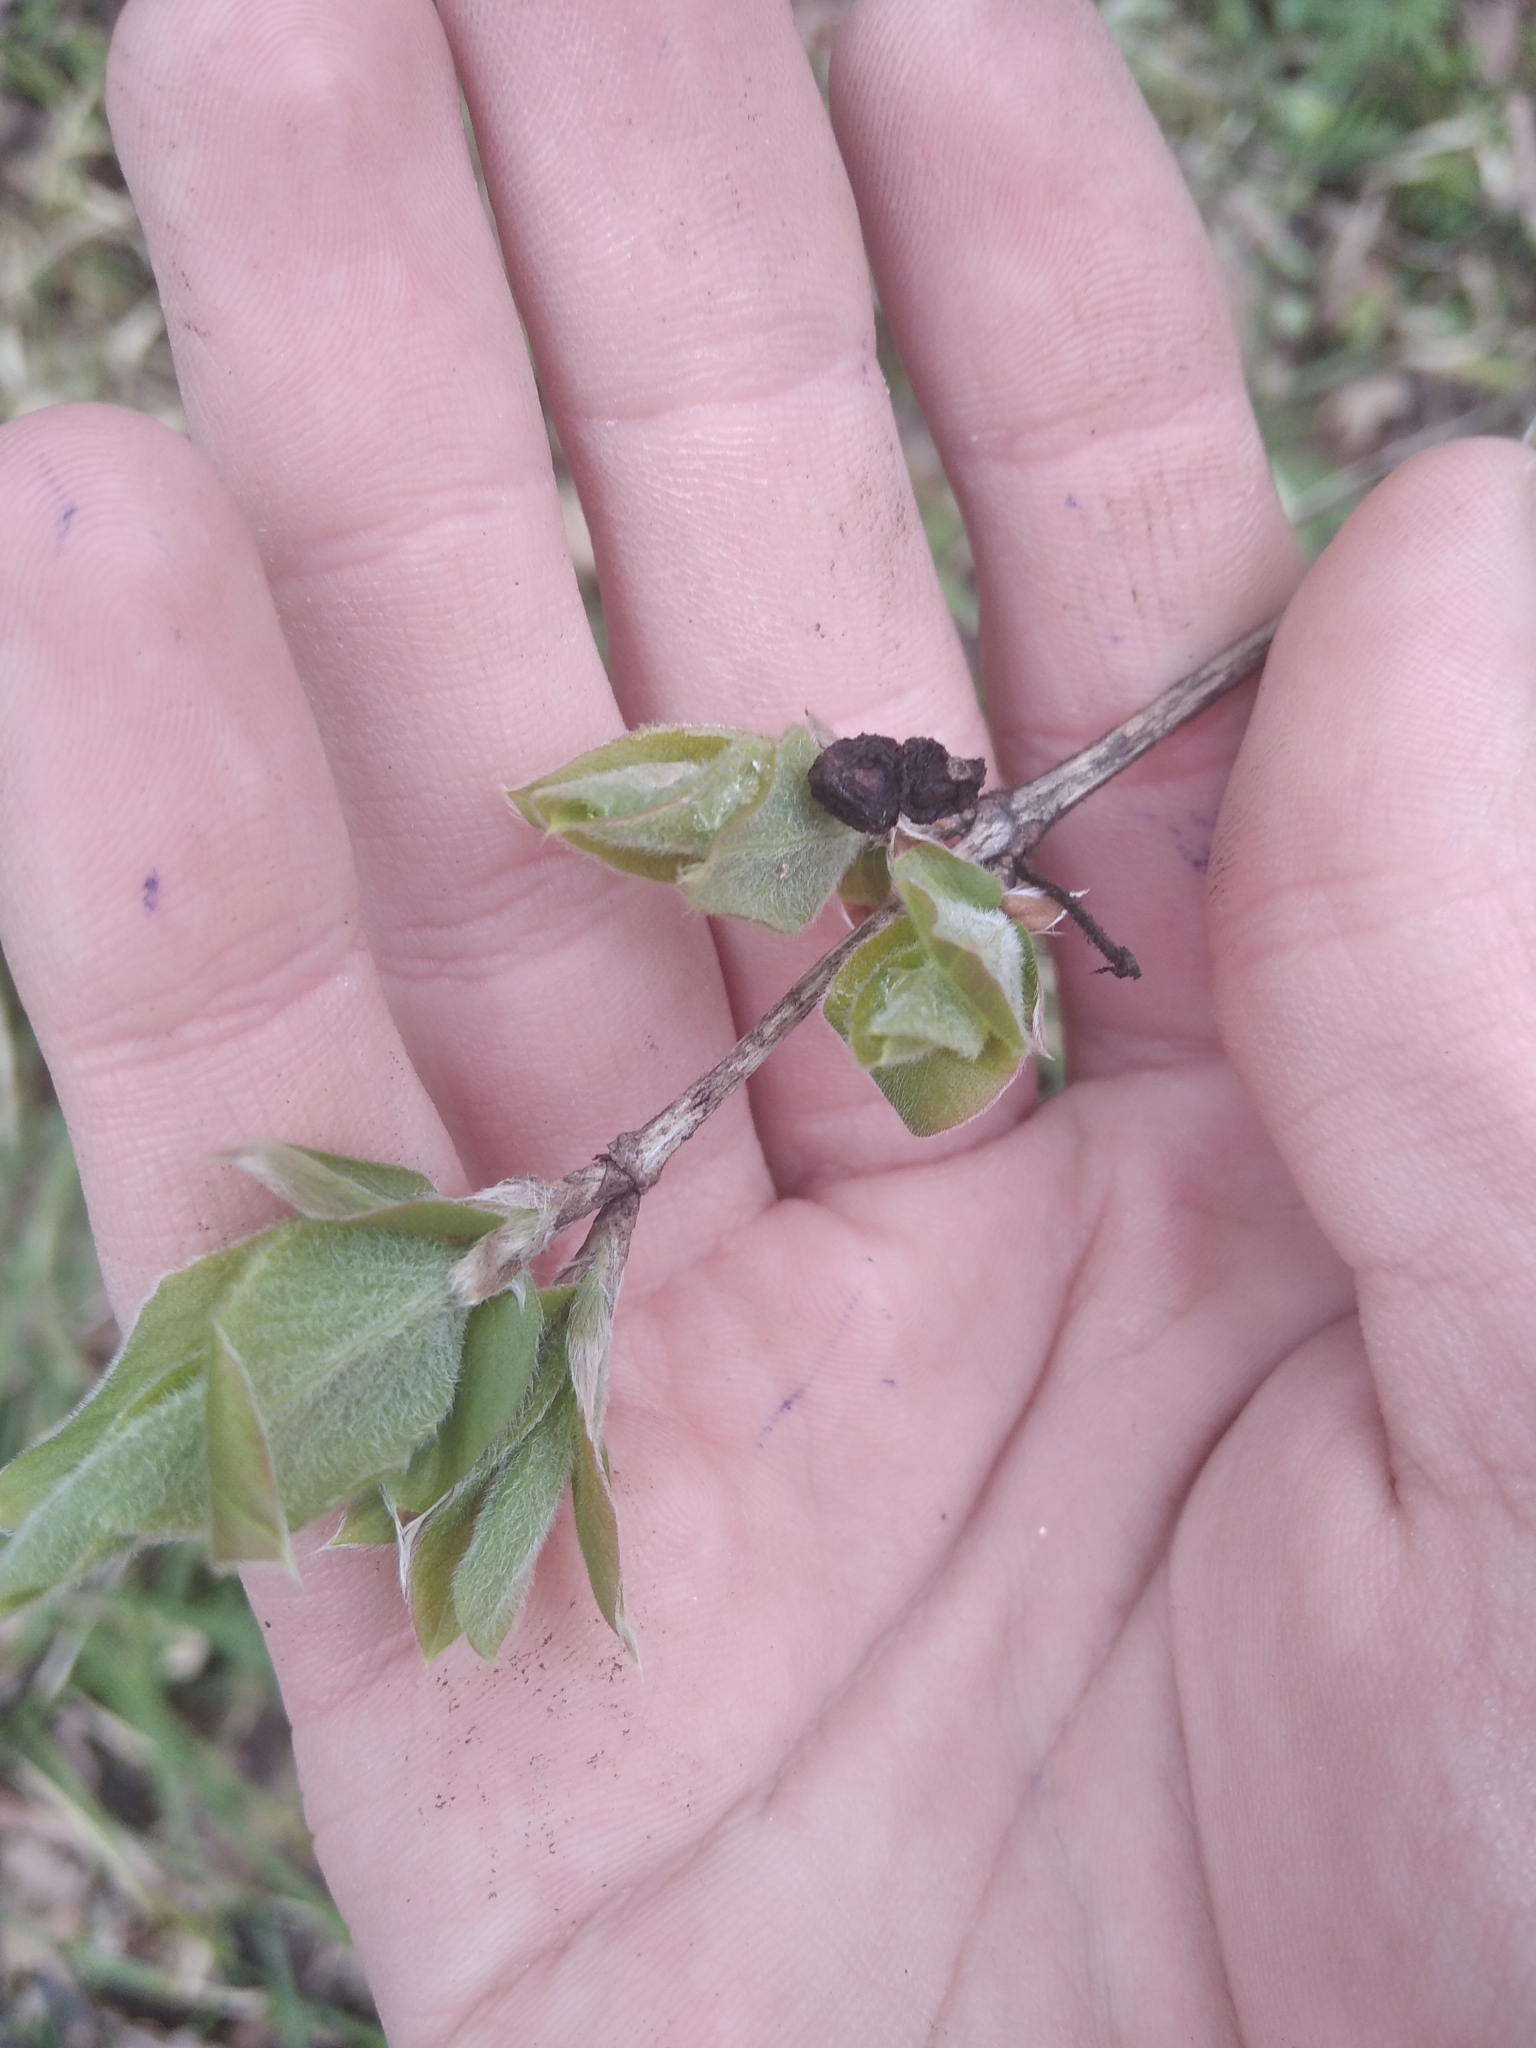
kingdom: Plantae
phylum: Tracheophyta
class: Magnoliopsida
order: Dipsacales
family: Caprifoliaceae
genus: Lonicera
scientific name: Lonicera xylosteum
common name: Fly honeysuckle
